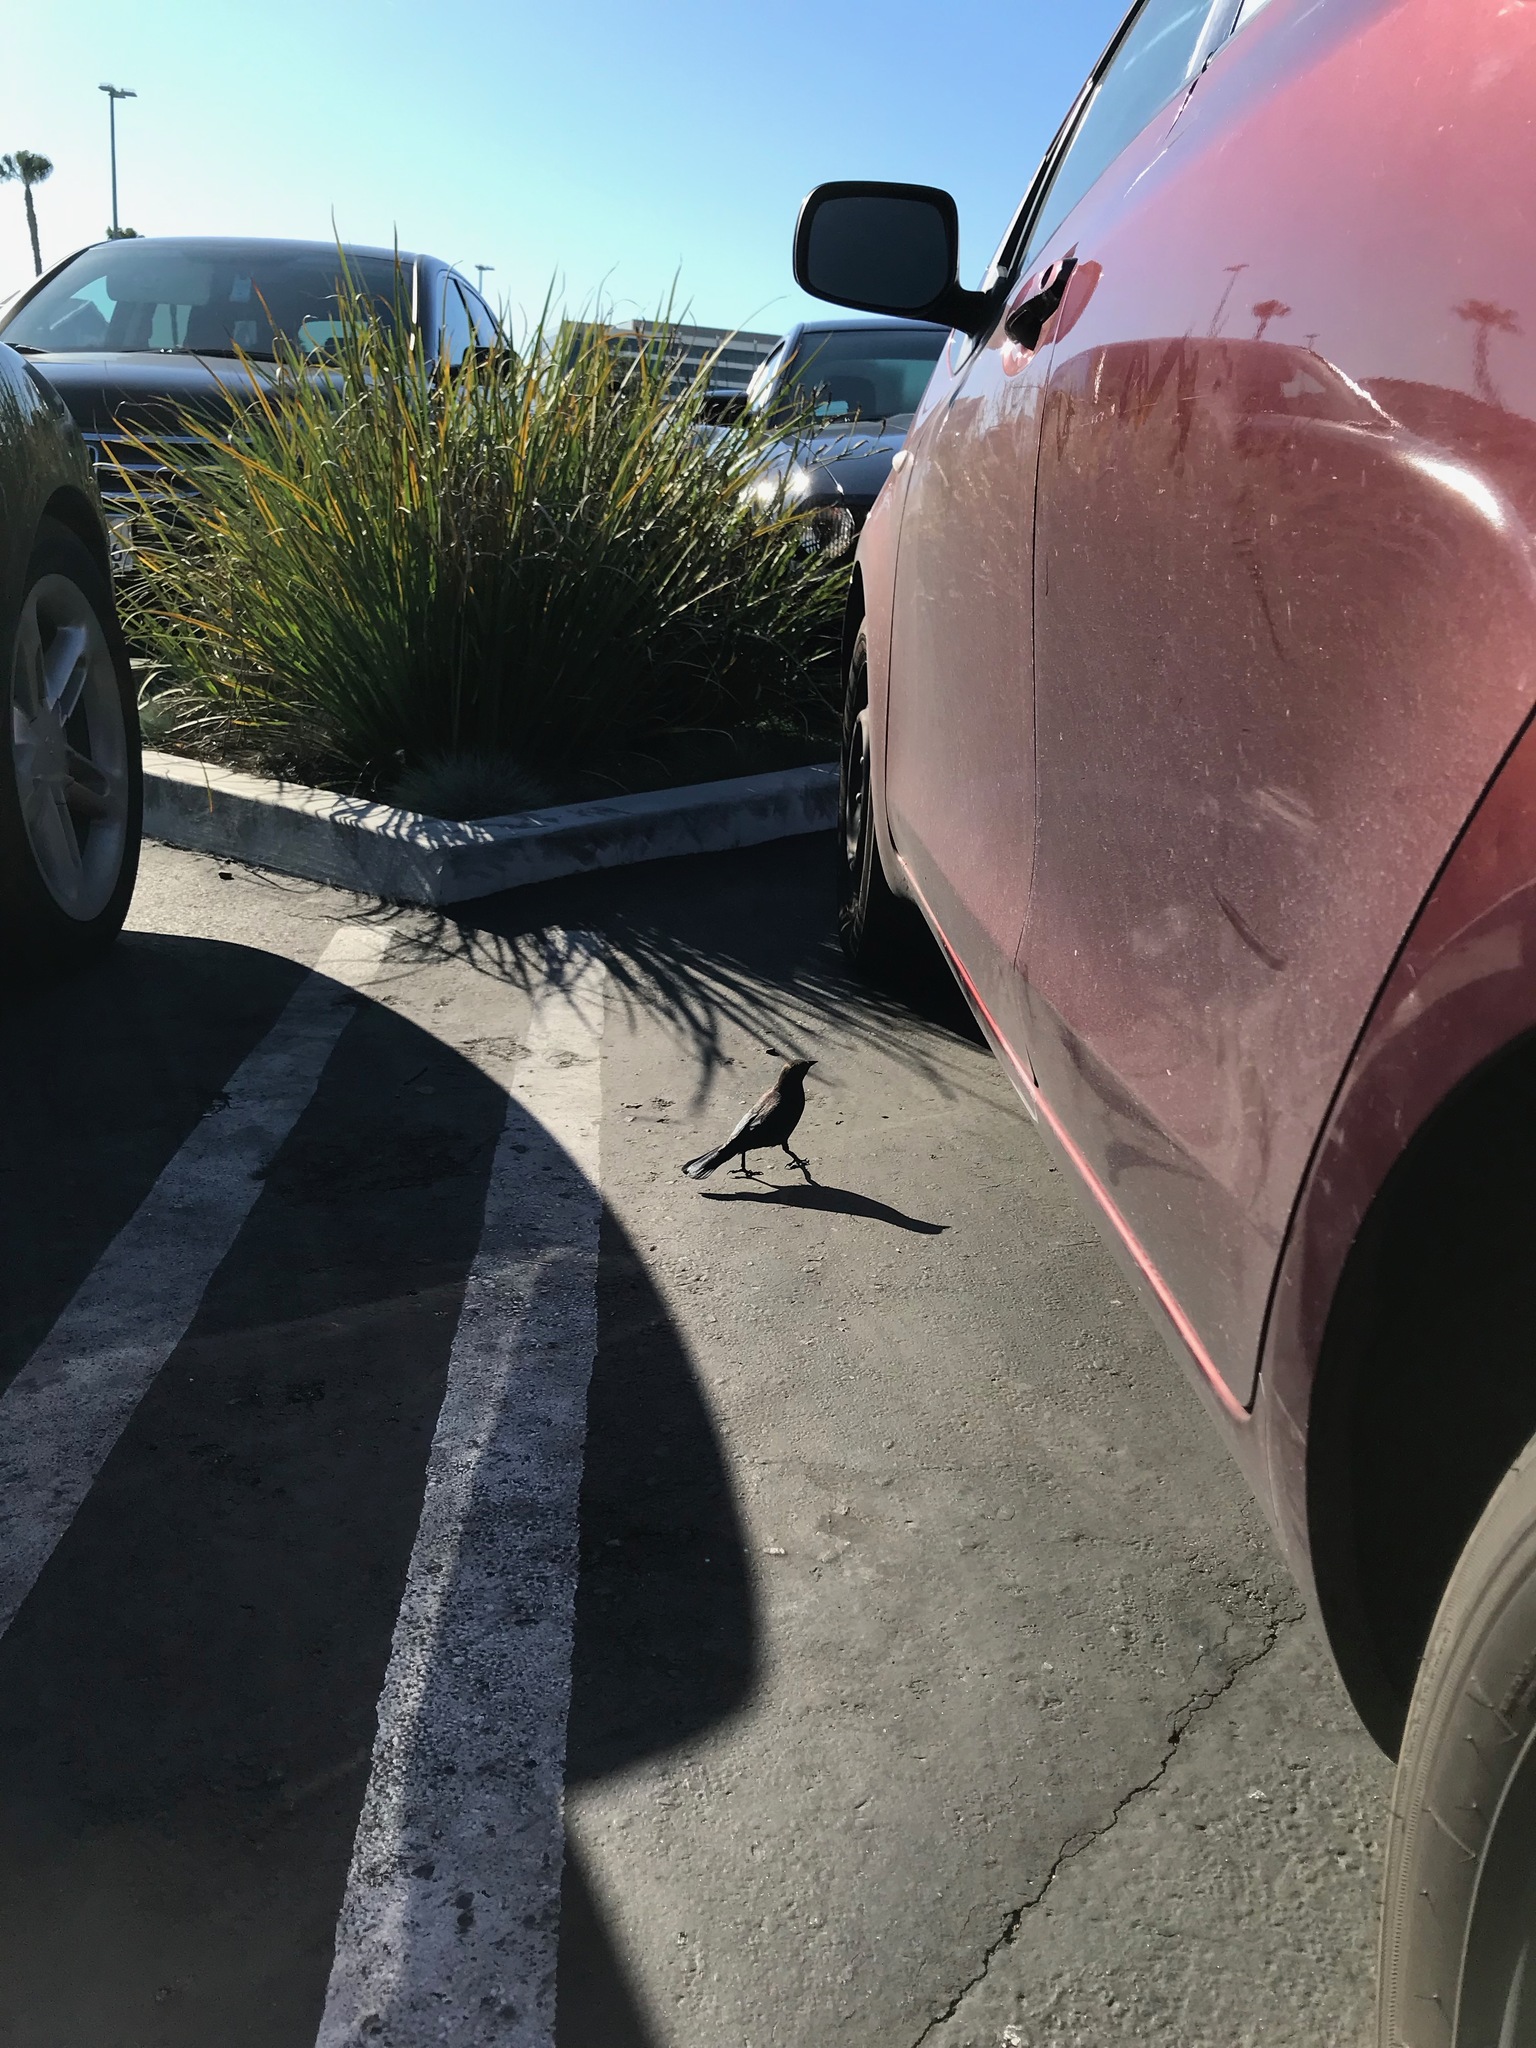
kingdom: Animalia
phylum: Chordata
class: Aves
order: Passeriformes
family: Icteridae
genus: Euphagus
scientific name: Euphagus cyanocephalus
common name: Brewer's blackbird
